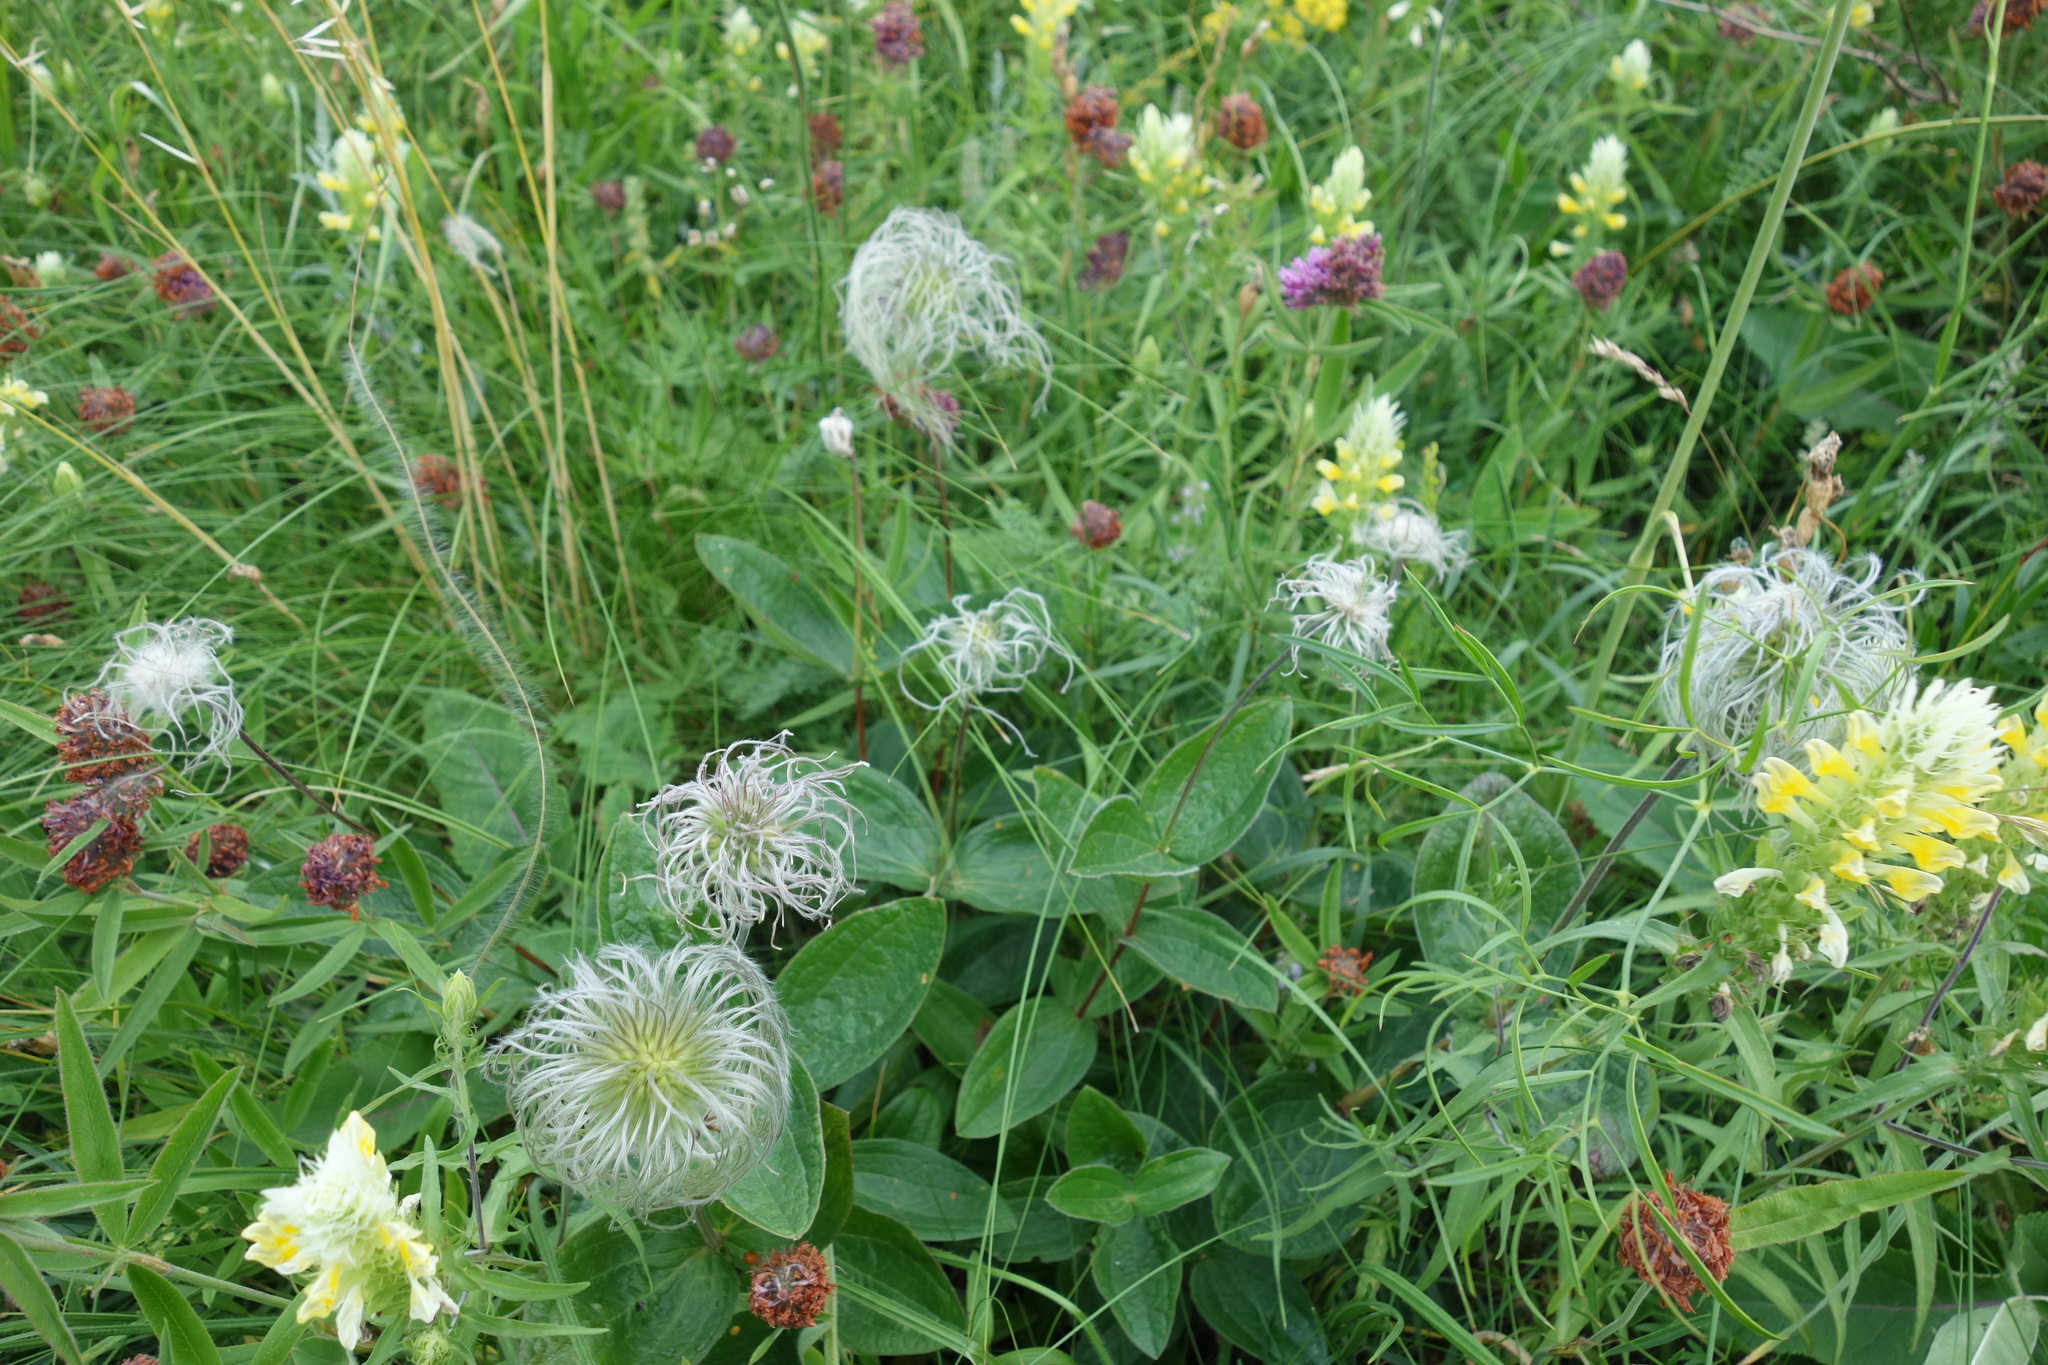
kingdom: Plantae
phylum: Tracheophyta
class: Magnoliopsida
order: Ranunculales
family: Ranunculaceae
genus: Clematis
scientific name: Clematis integrifolia
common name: Solitary clematis
